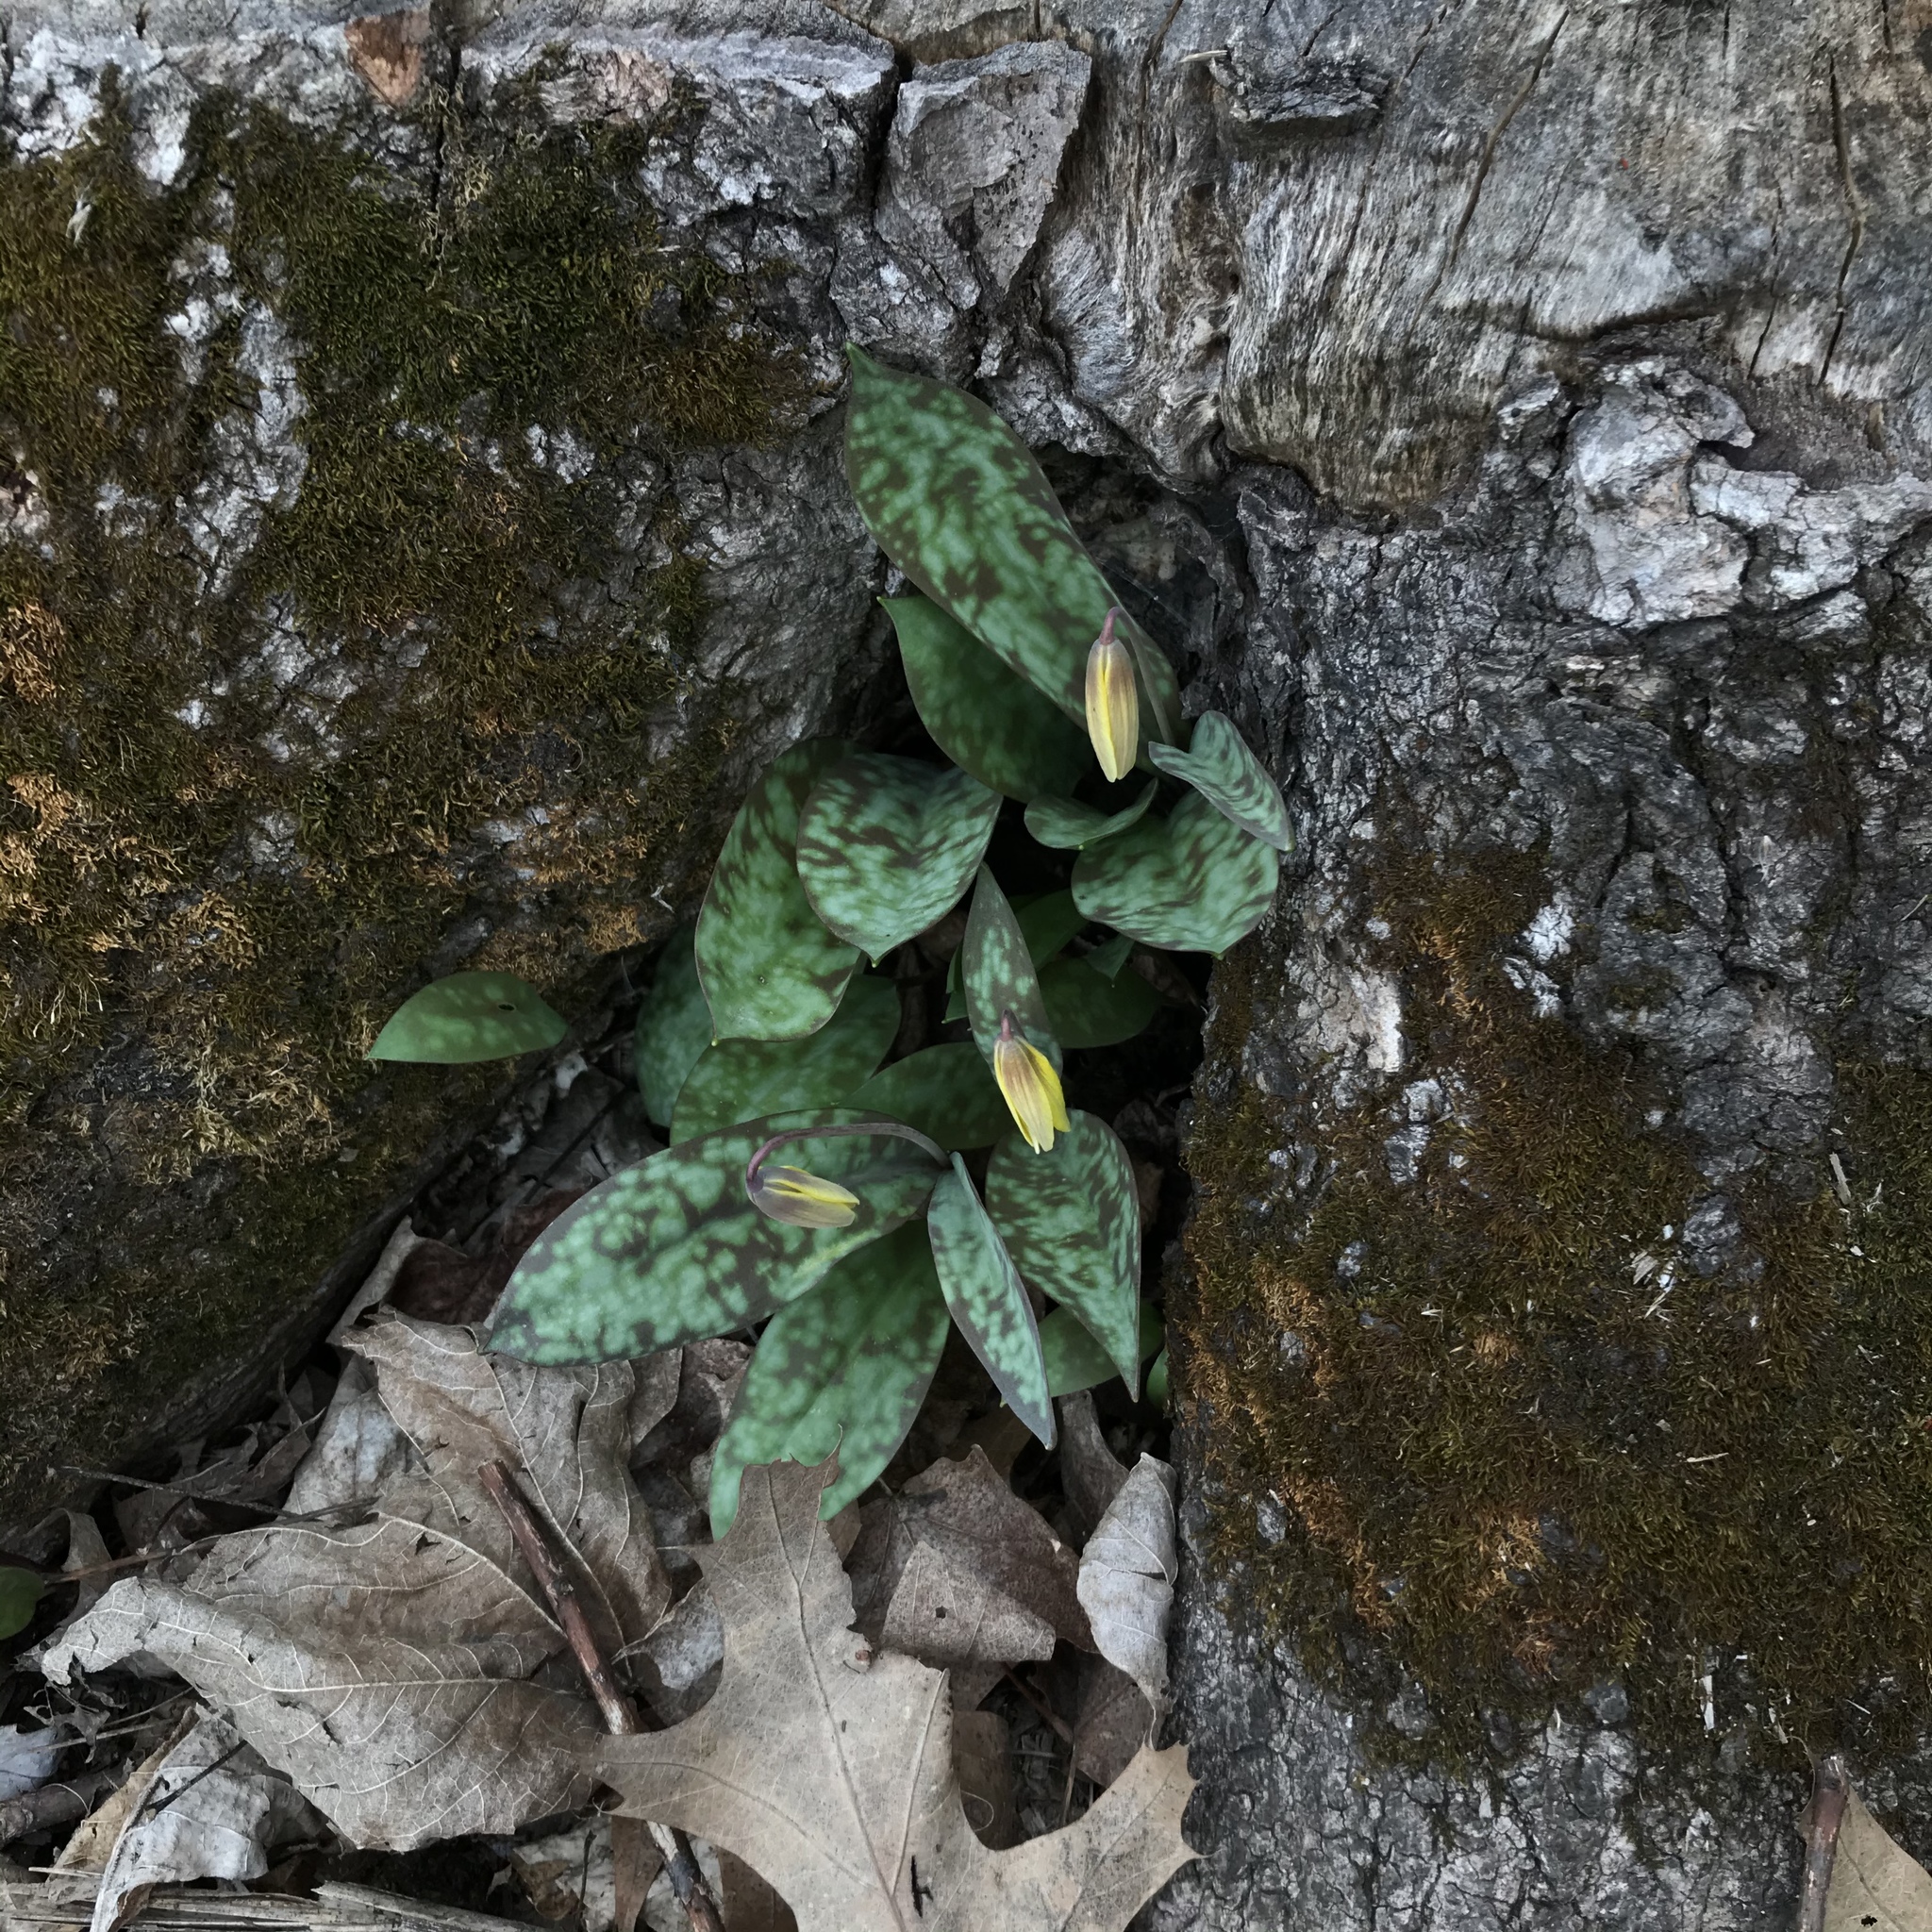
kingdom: Plantae
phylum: Tracheophyta
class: Liliopsida
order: Liliales
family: Liliaceae
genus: Erythronium
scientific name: Erythronium americanum
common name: Yellow adder's-tongue
